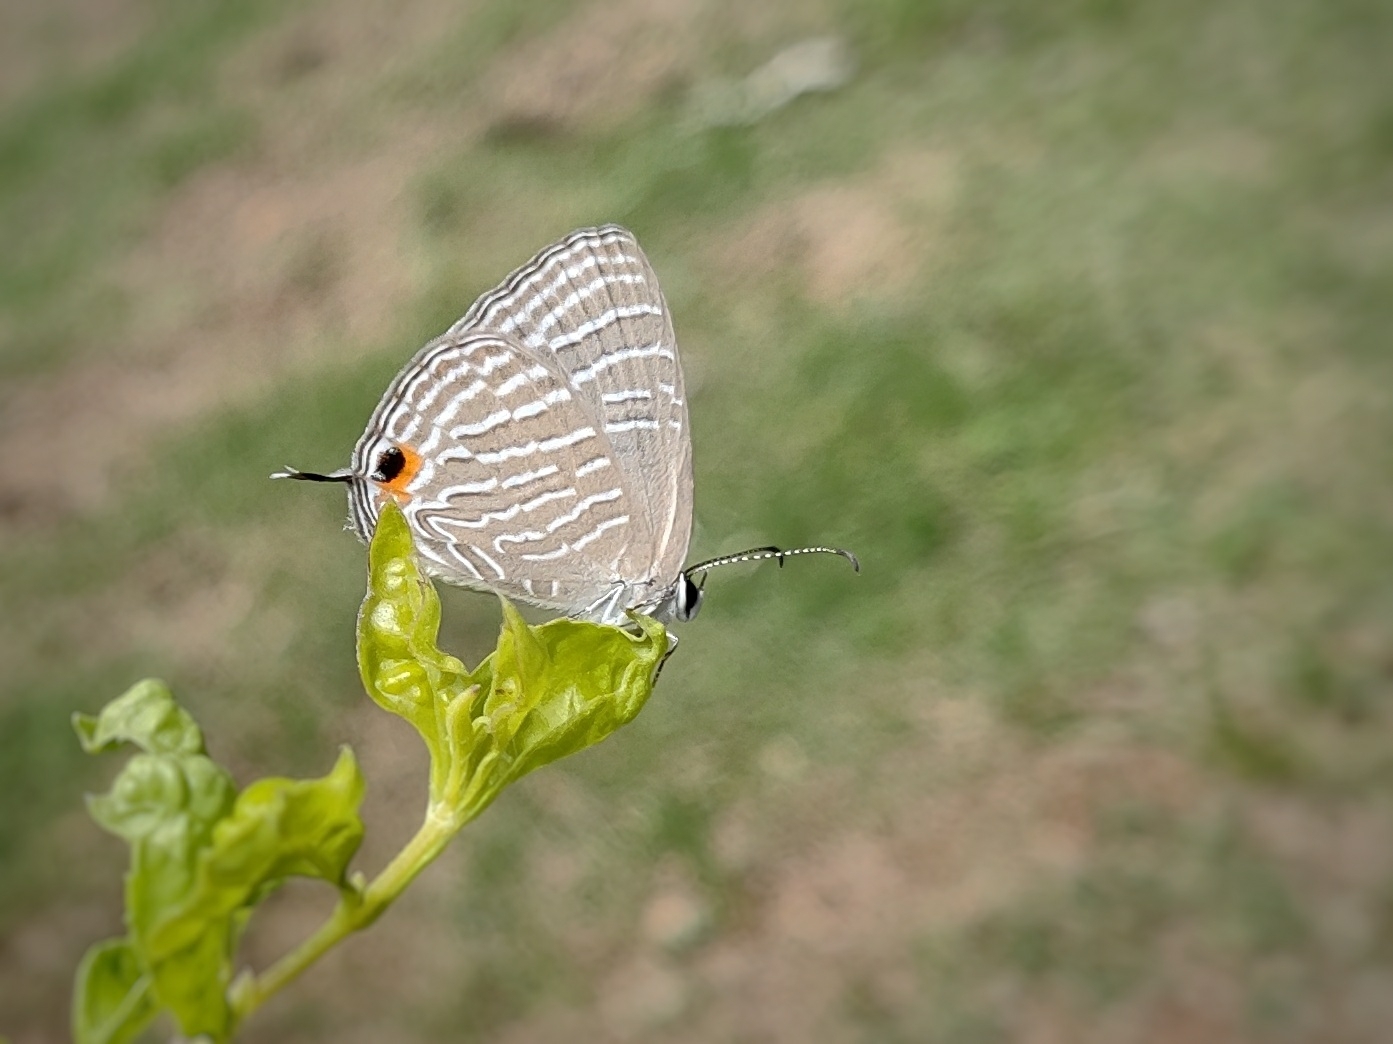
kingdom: Animalia
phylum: Arthropoda
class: Insecta
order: Lepidoptera
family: Lycaenidae
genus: Jamides
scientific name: Jamides celeno
